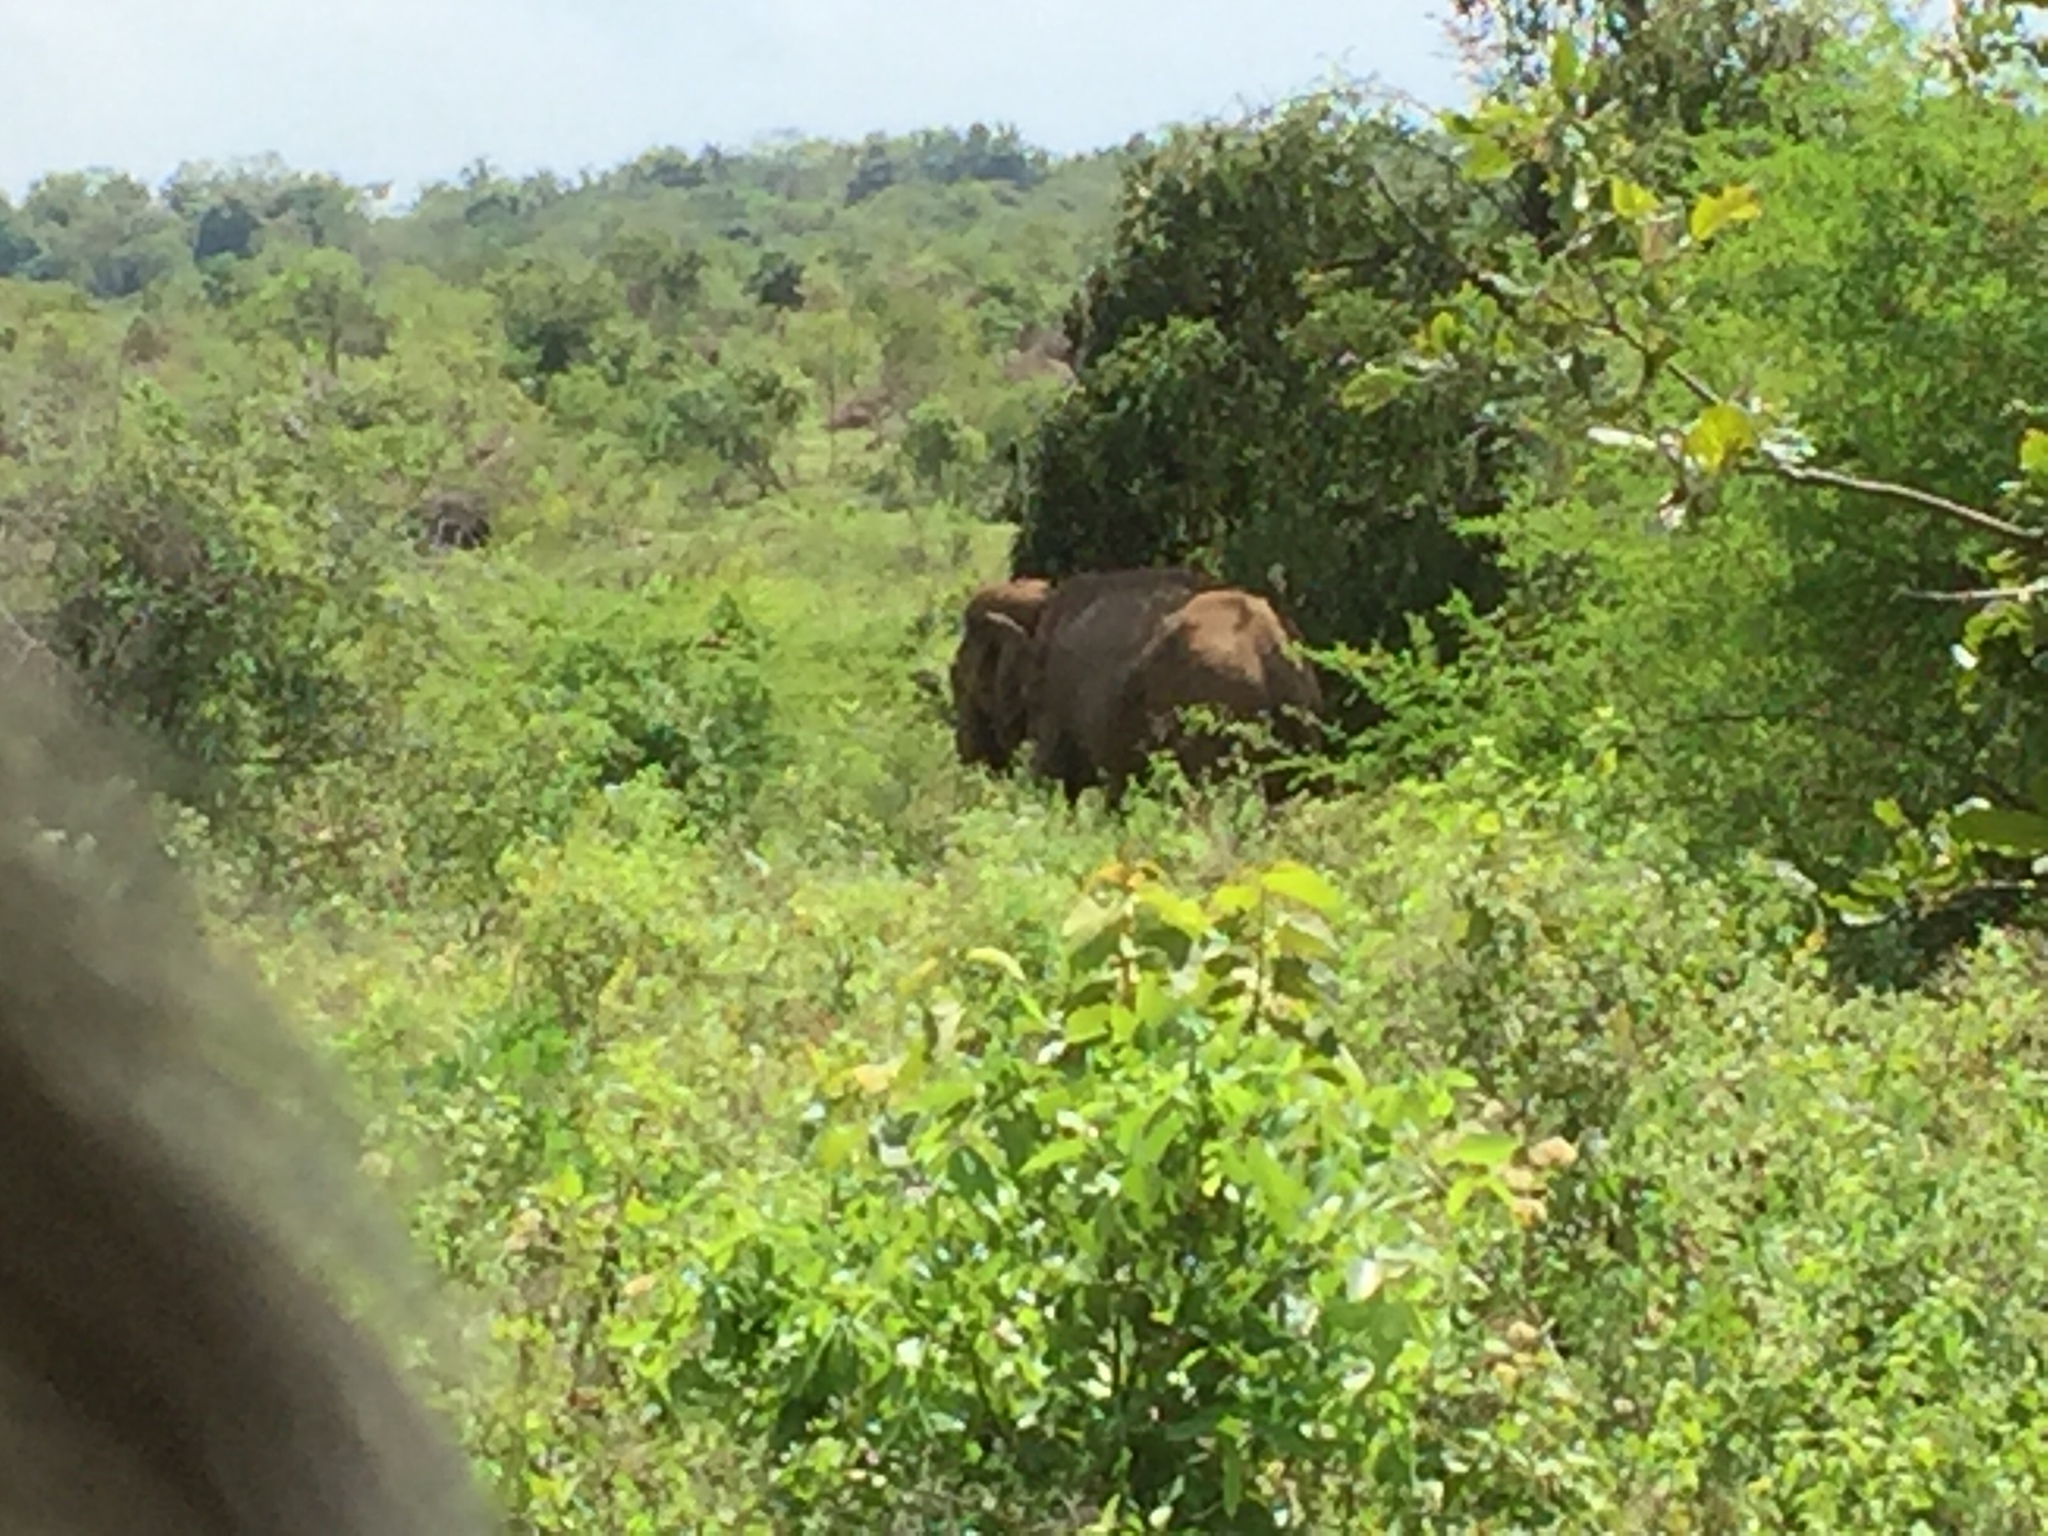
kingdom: Animalia
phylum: Chordata
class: Mammalia
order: Proboscidea
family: Elephantidae
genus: Elephas
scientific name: Elephas maximus
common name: Asian elephant
